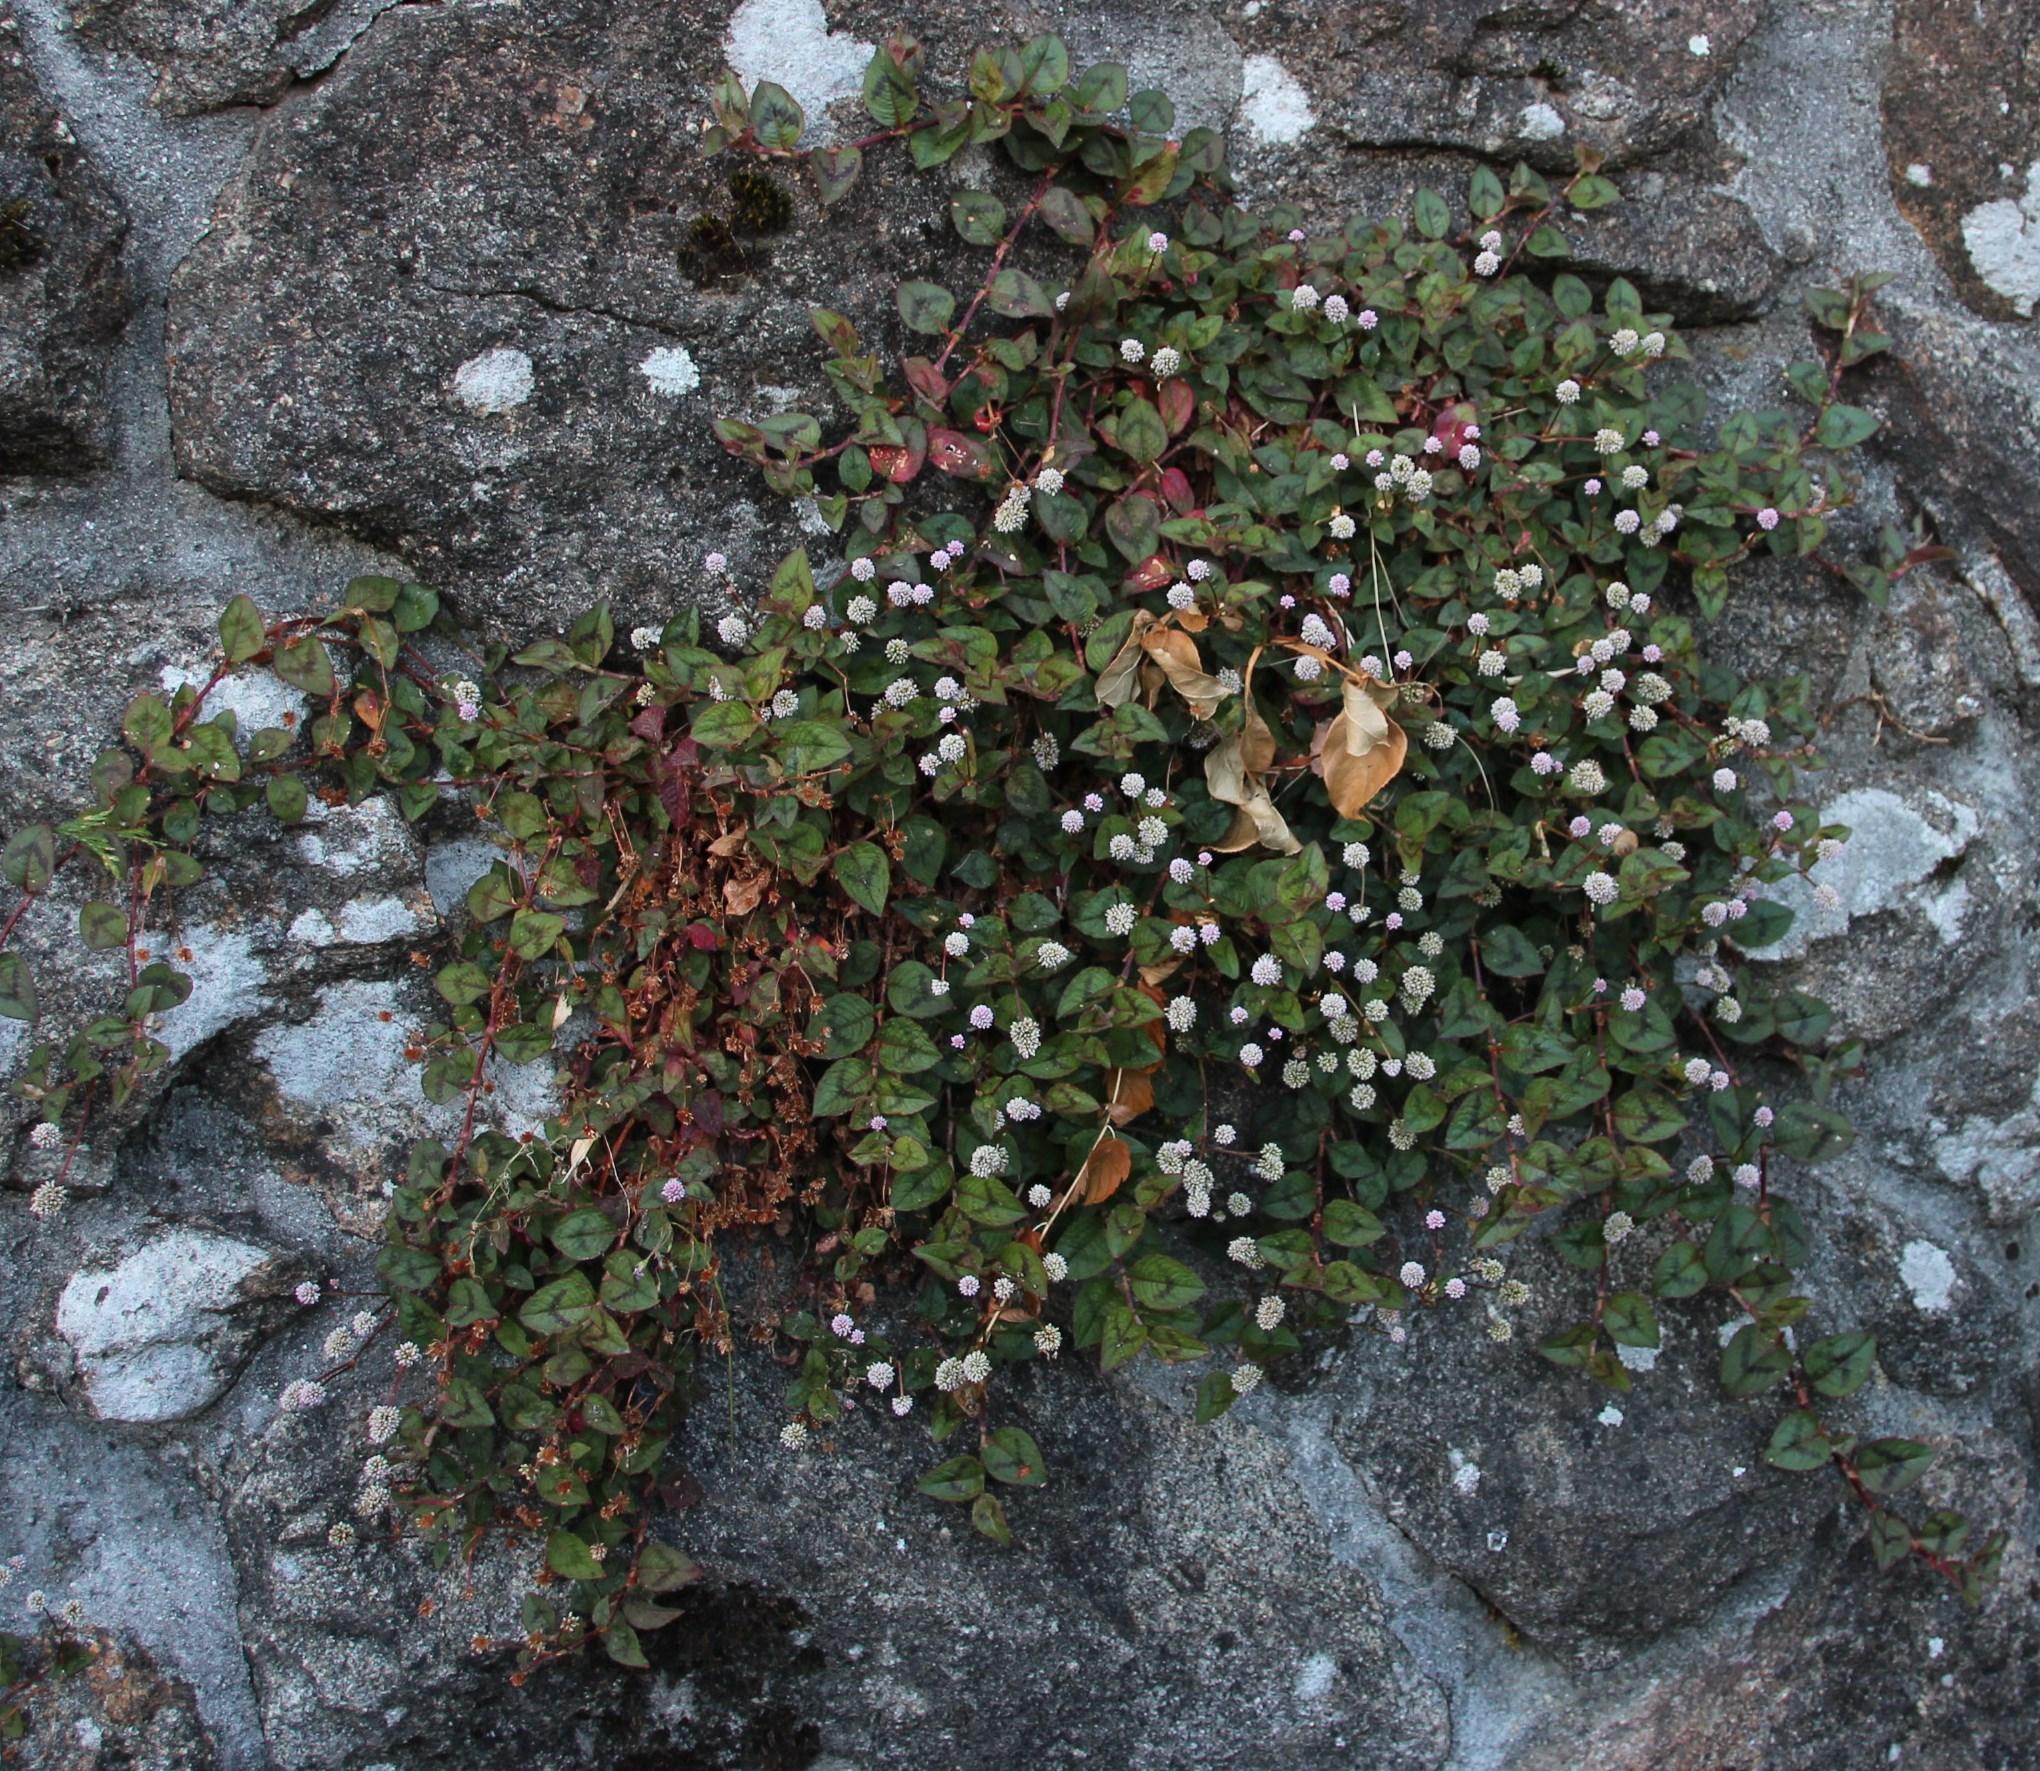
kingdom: Plantae
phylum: Tracheophyta
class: Magnoliopsida
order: Caryophyllales
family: Polygonaceae
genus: Persicaria
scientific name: Persicaria capitata
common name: Pinkhead smartweed
